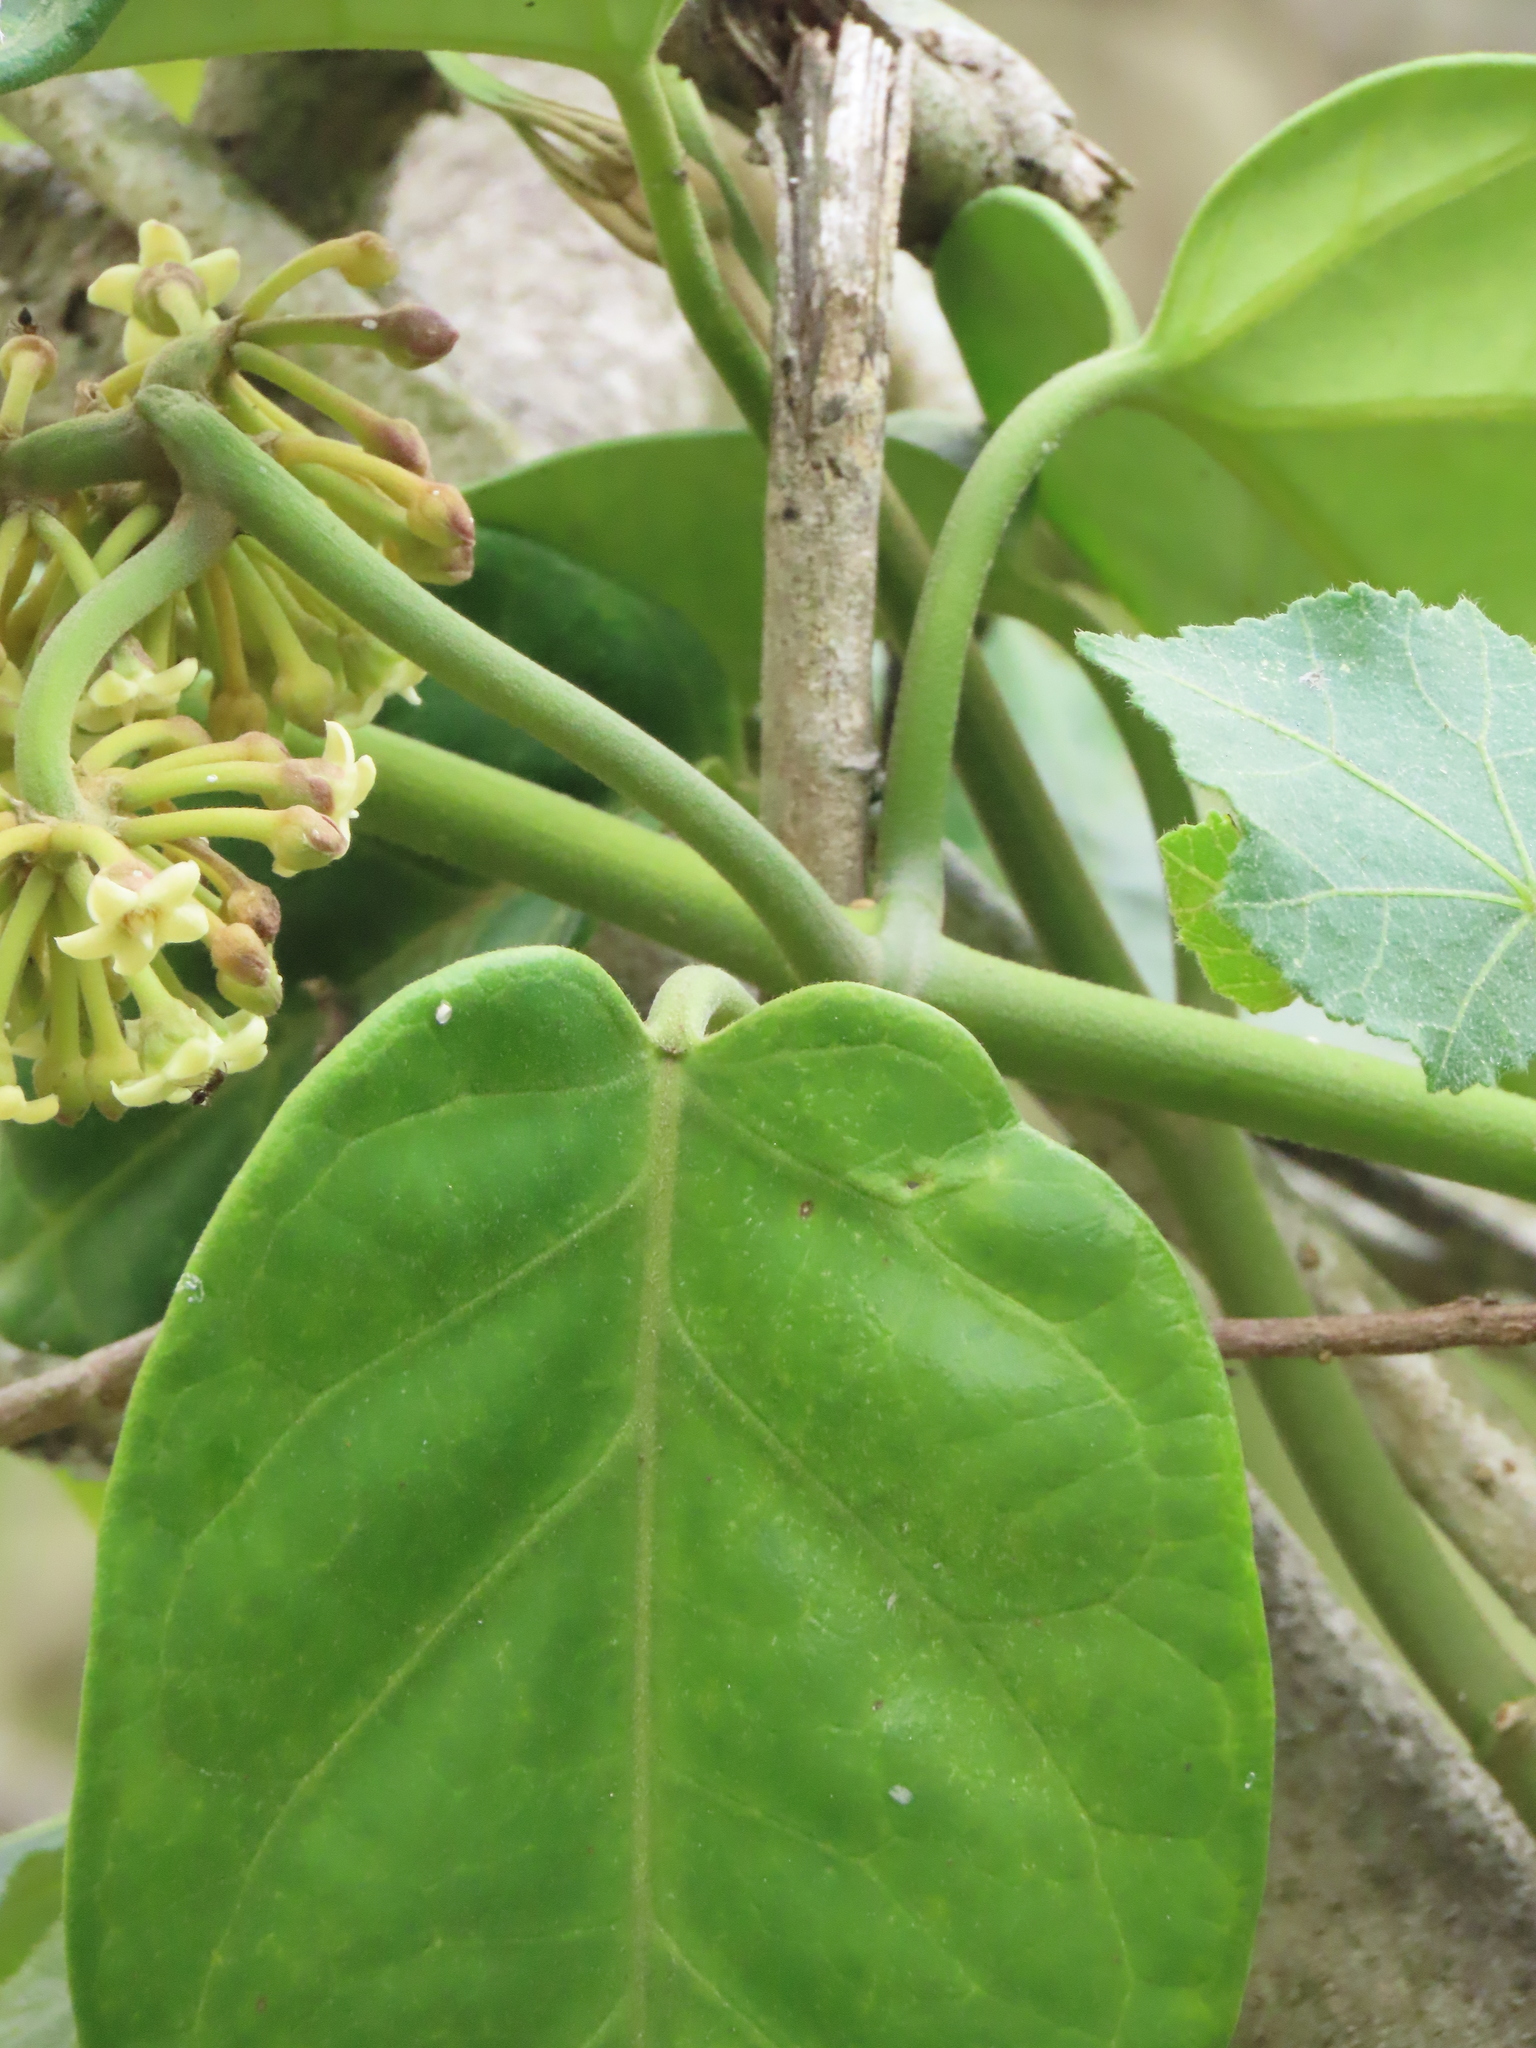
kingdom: Plantae
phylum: Tracheophyta
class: Magnoliopsida
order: Gentianales
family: Apocynaceae
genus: Sinomarsdenia
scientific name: Sinomarsdenia formosana
